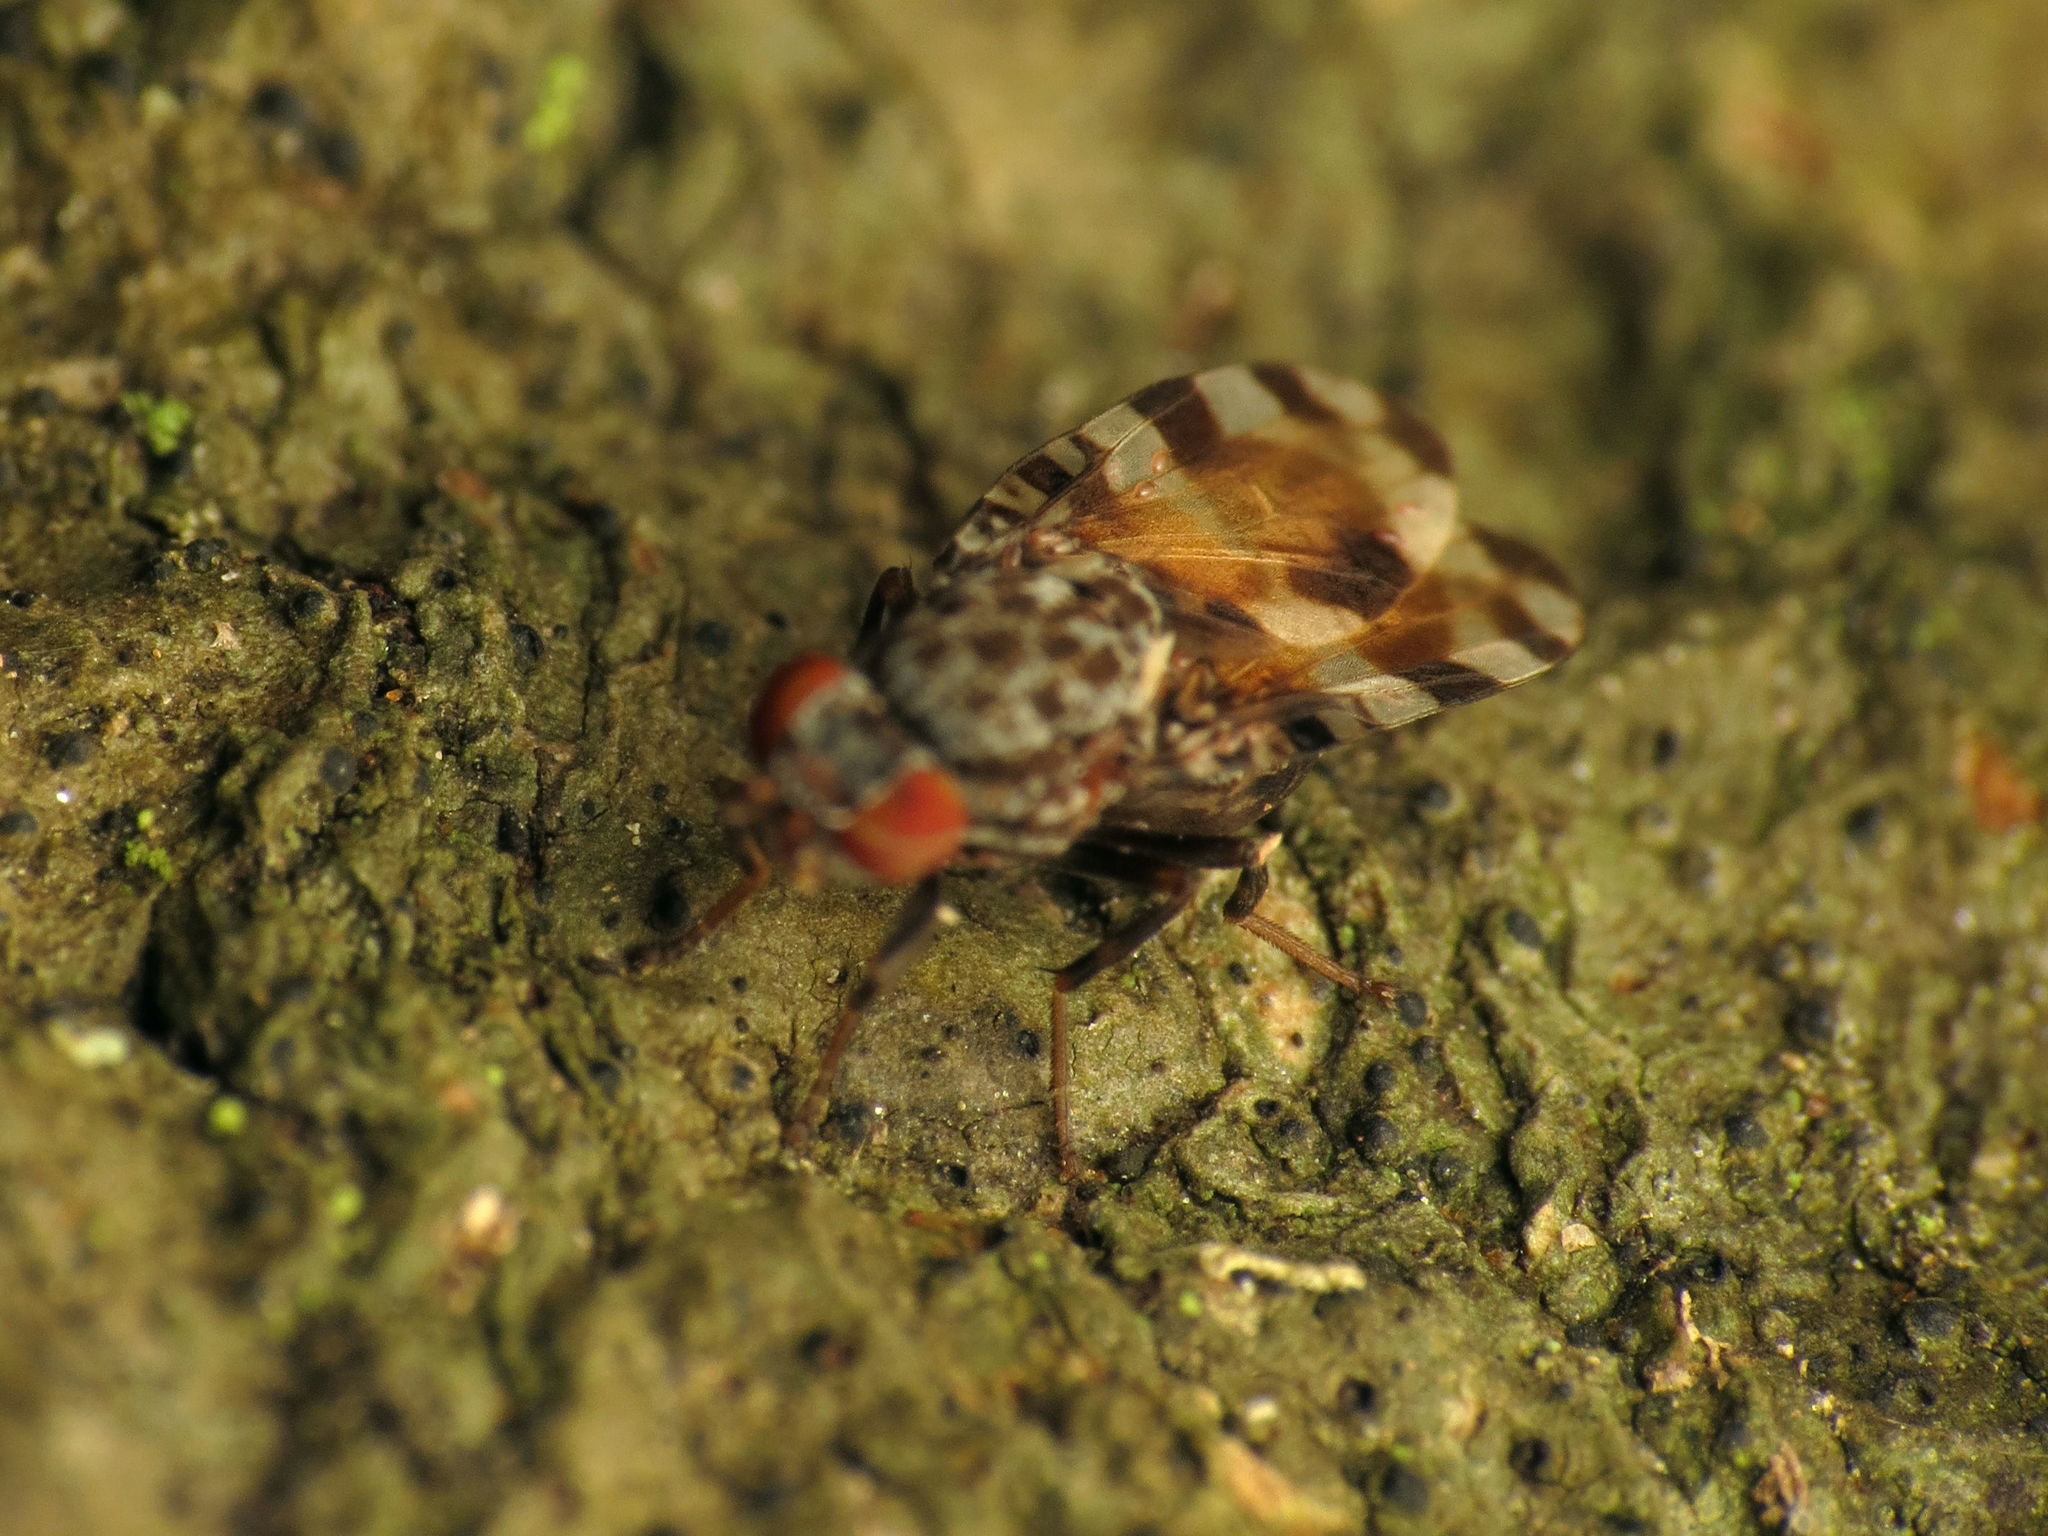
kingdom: Animalia
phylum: Arthropoda
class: Insecta
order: Diptera
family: Ulidiidae
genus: Pseudotephritis
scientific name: Pseudotephritis approximata
